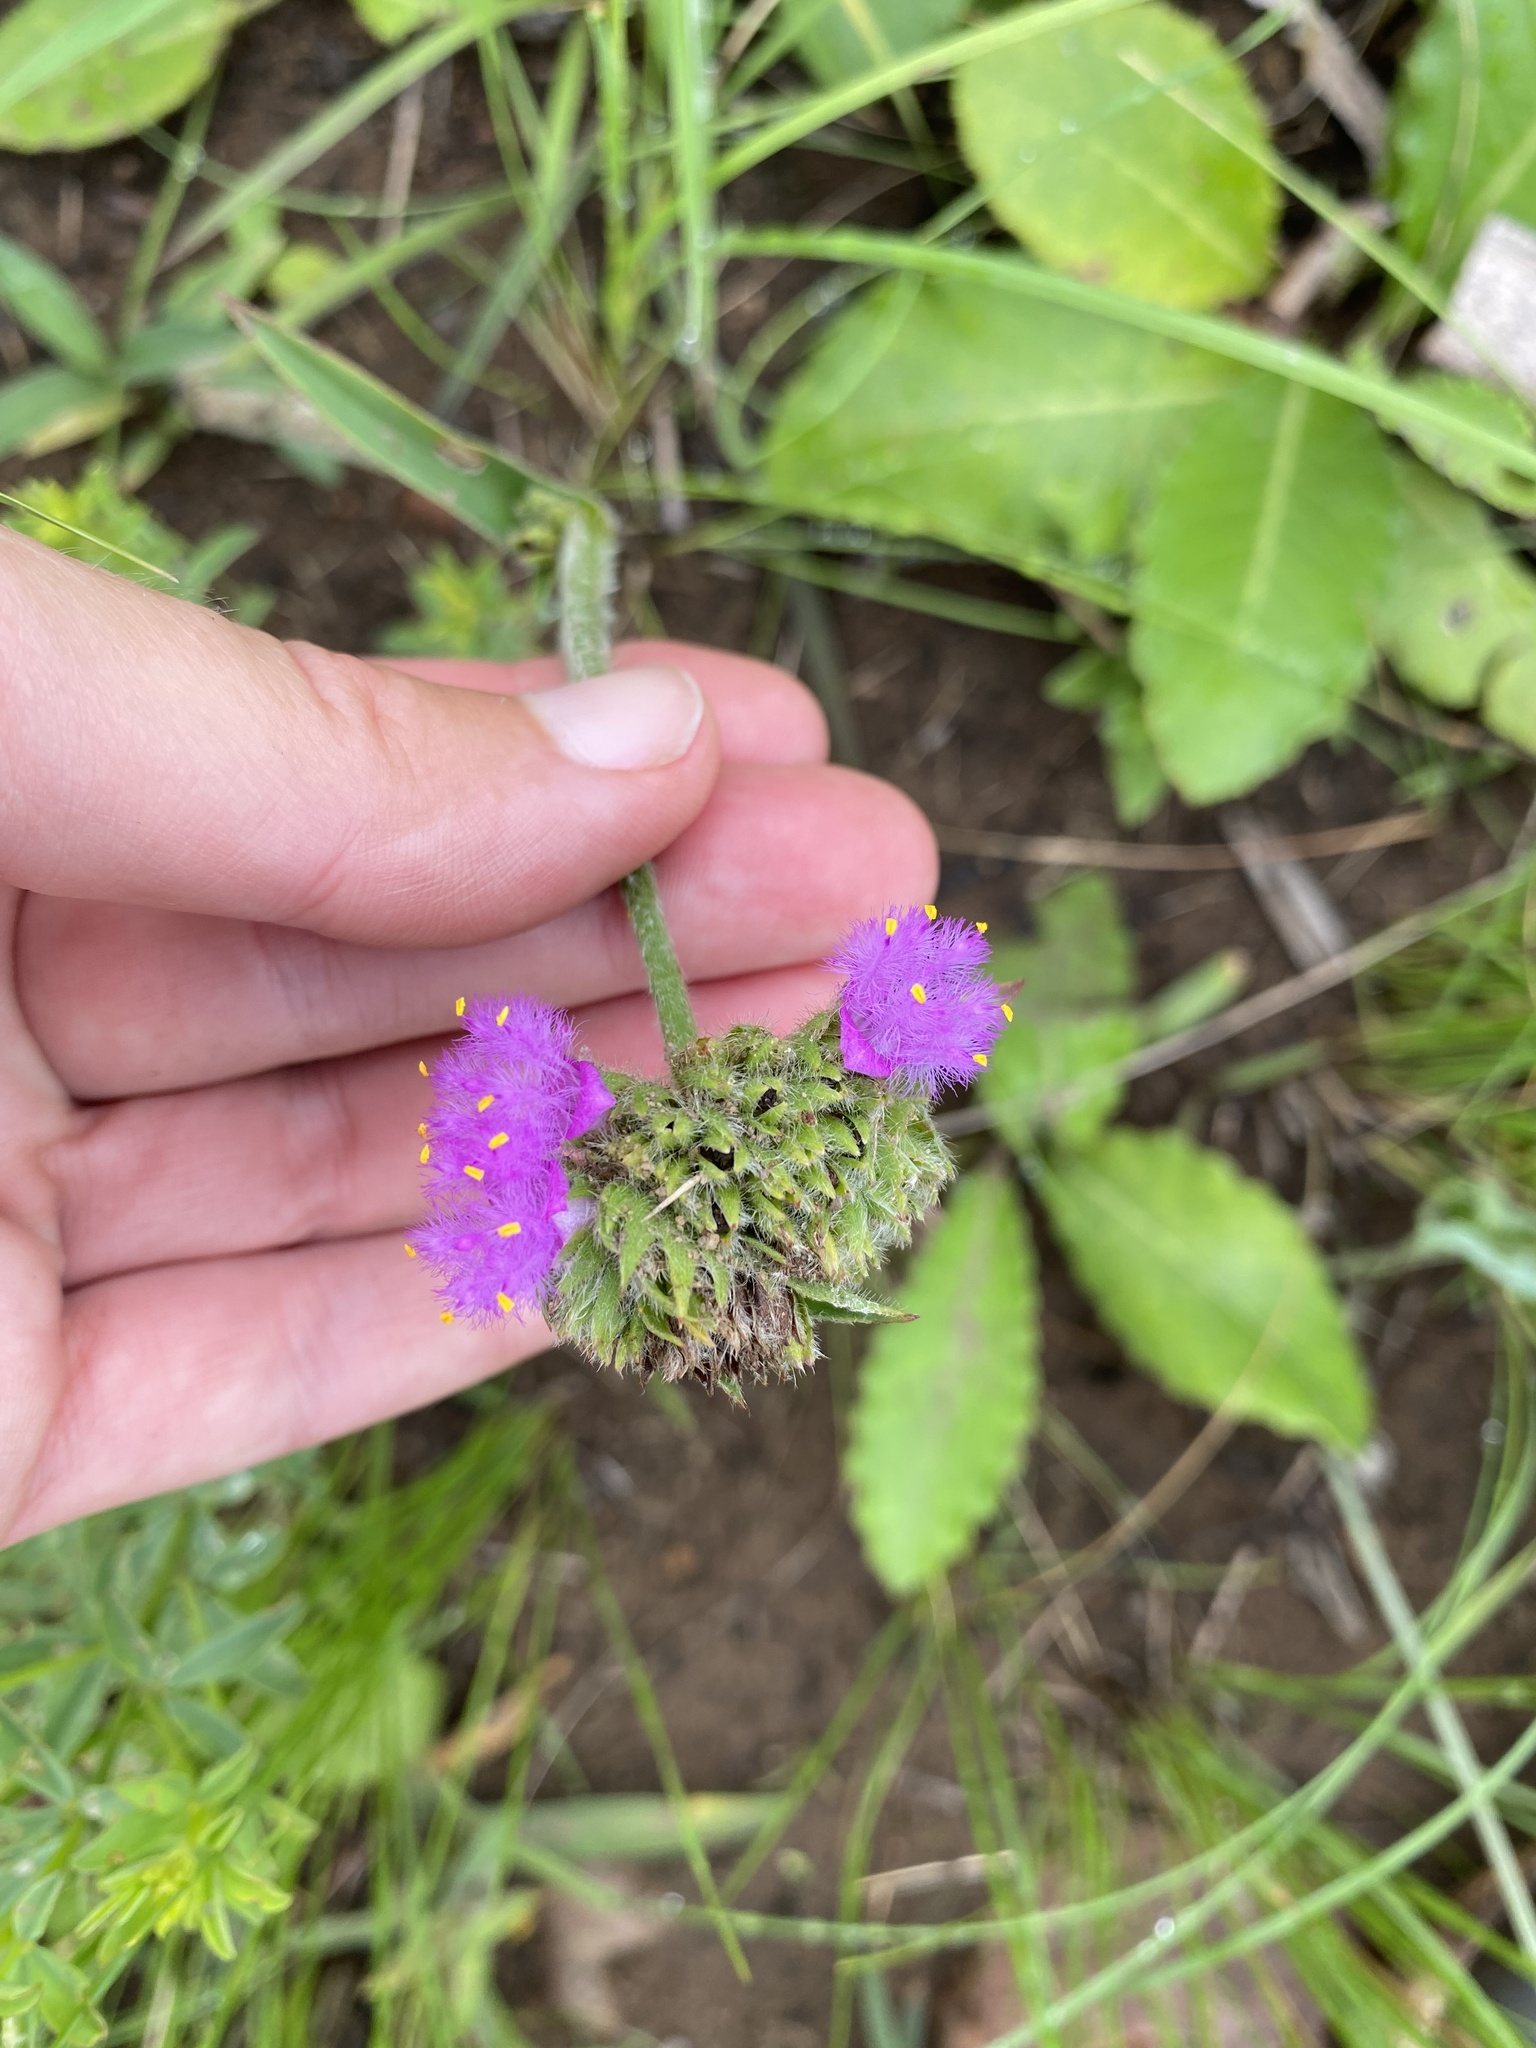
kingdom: Plantae
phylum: Tracheophyta
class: Liliopsida
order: Commelinales
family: Commelinaceae
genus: Cyanotis
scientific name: Cyanotis speciosa
